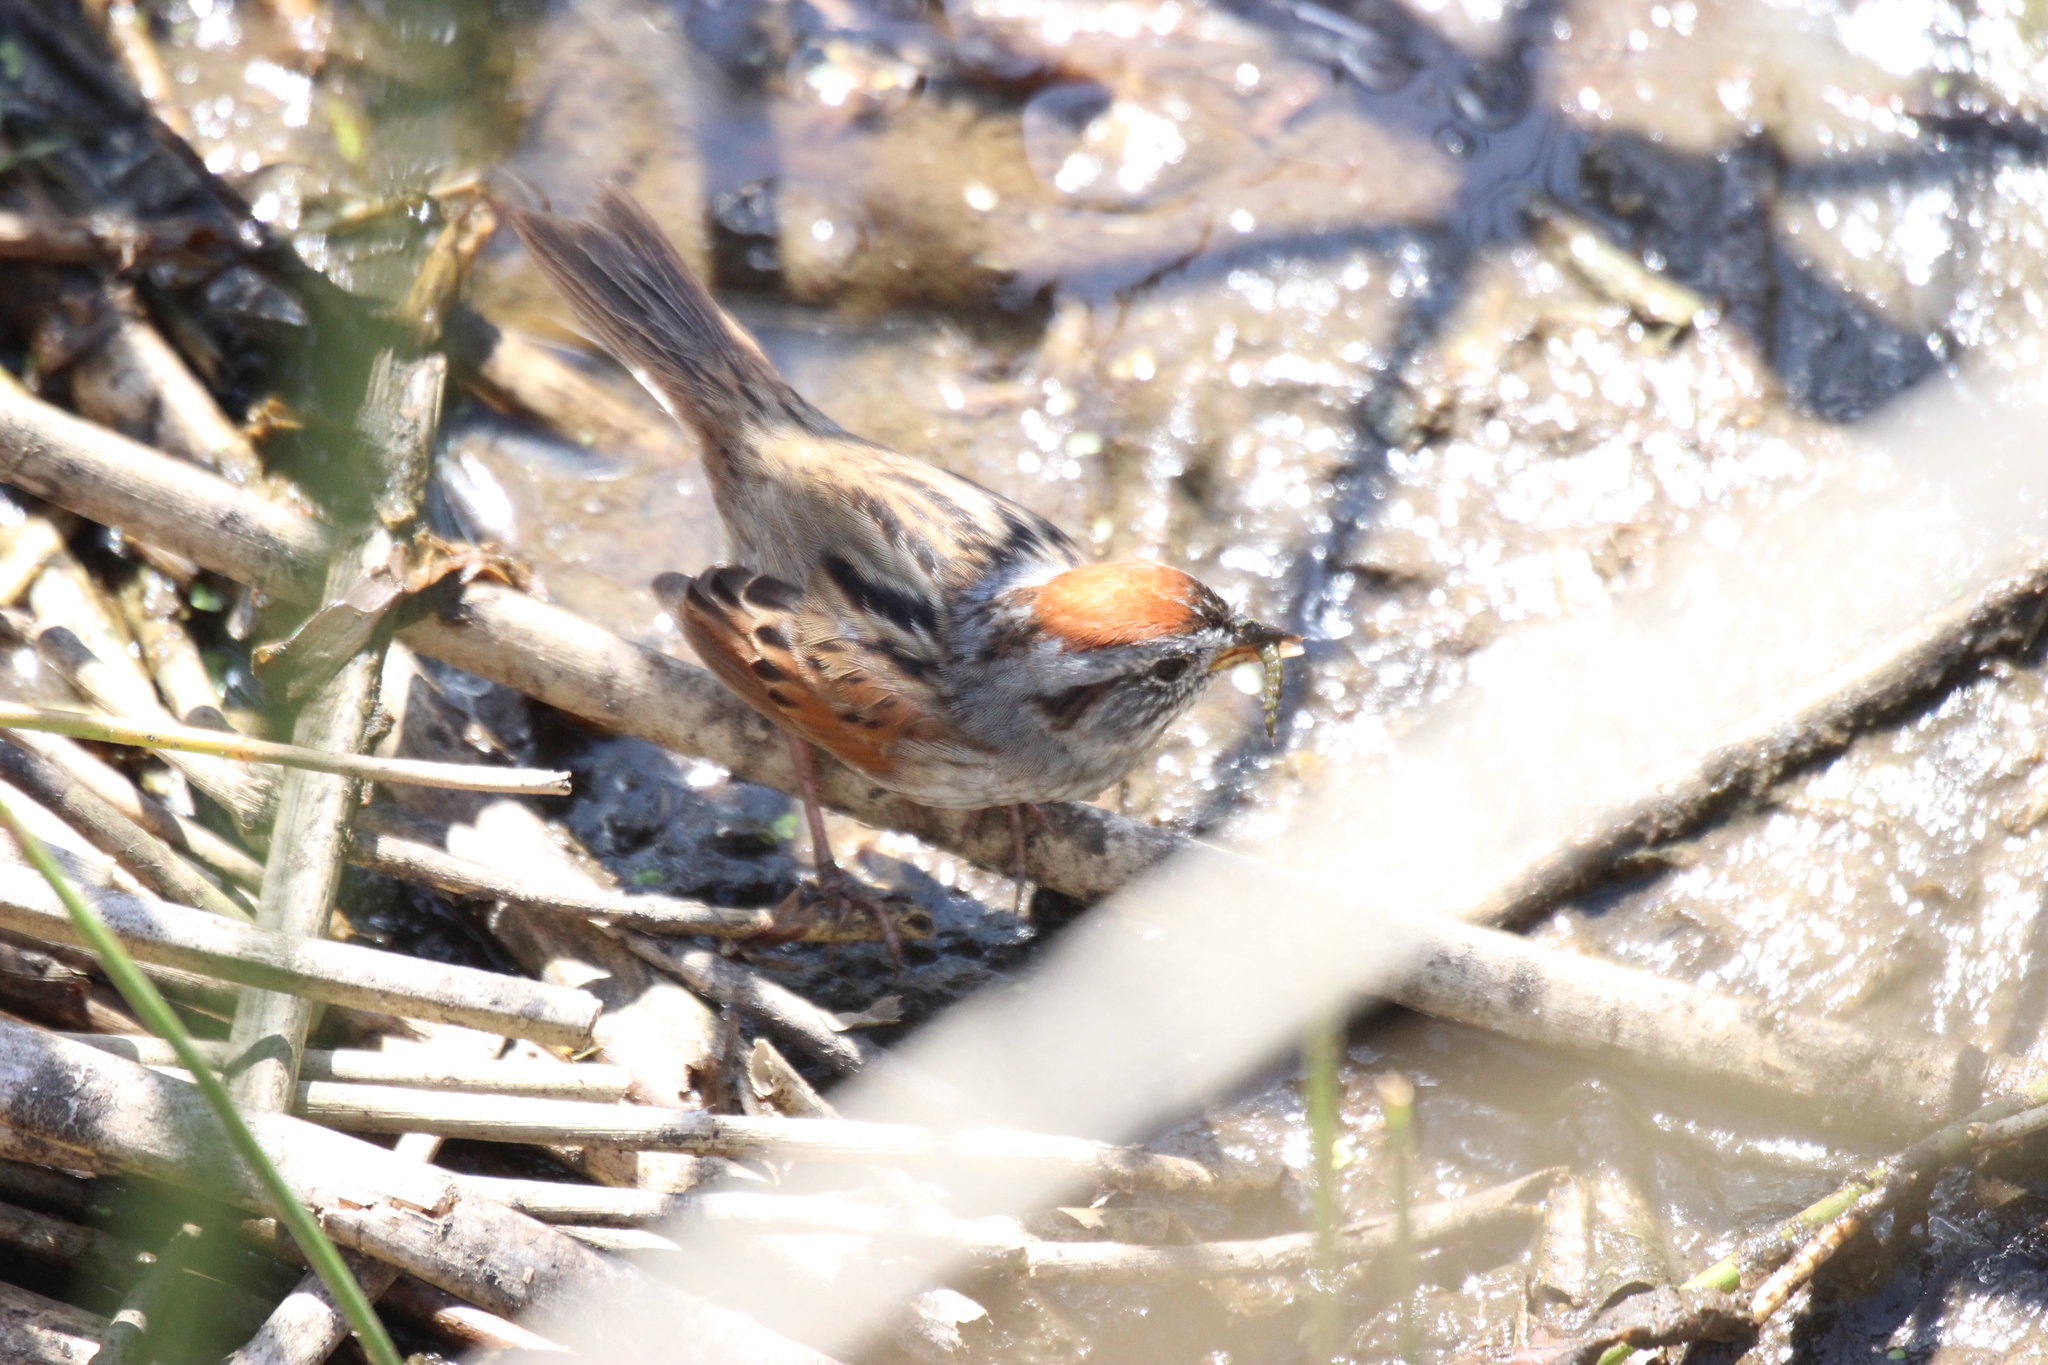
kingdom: Animalia
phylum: Chordata
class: Aves
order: Passeriformes
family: Passerellidae
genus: Melospiza
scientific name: Melospiza georgiana
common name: Swamp sparrow
